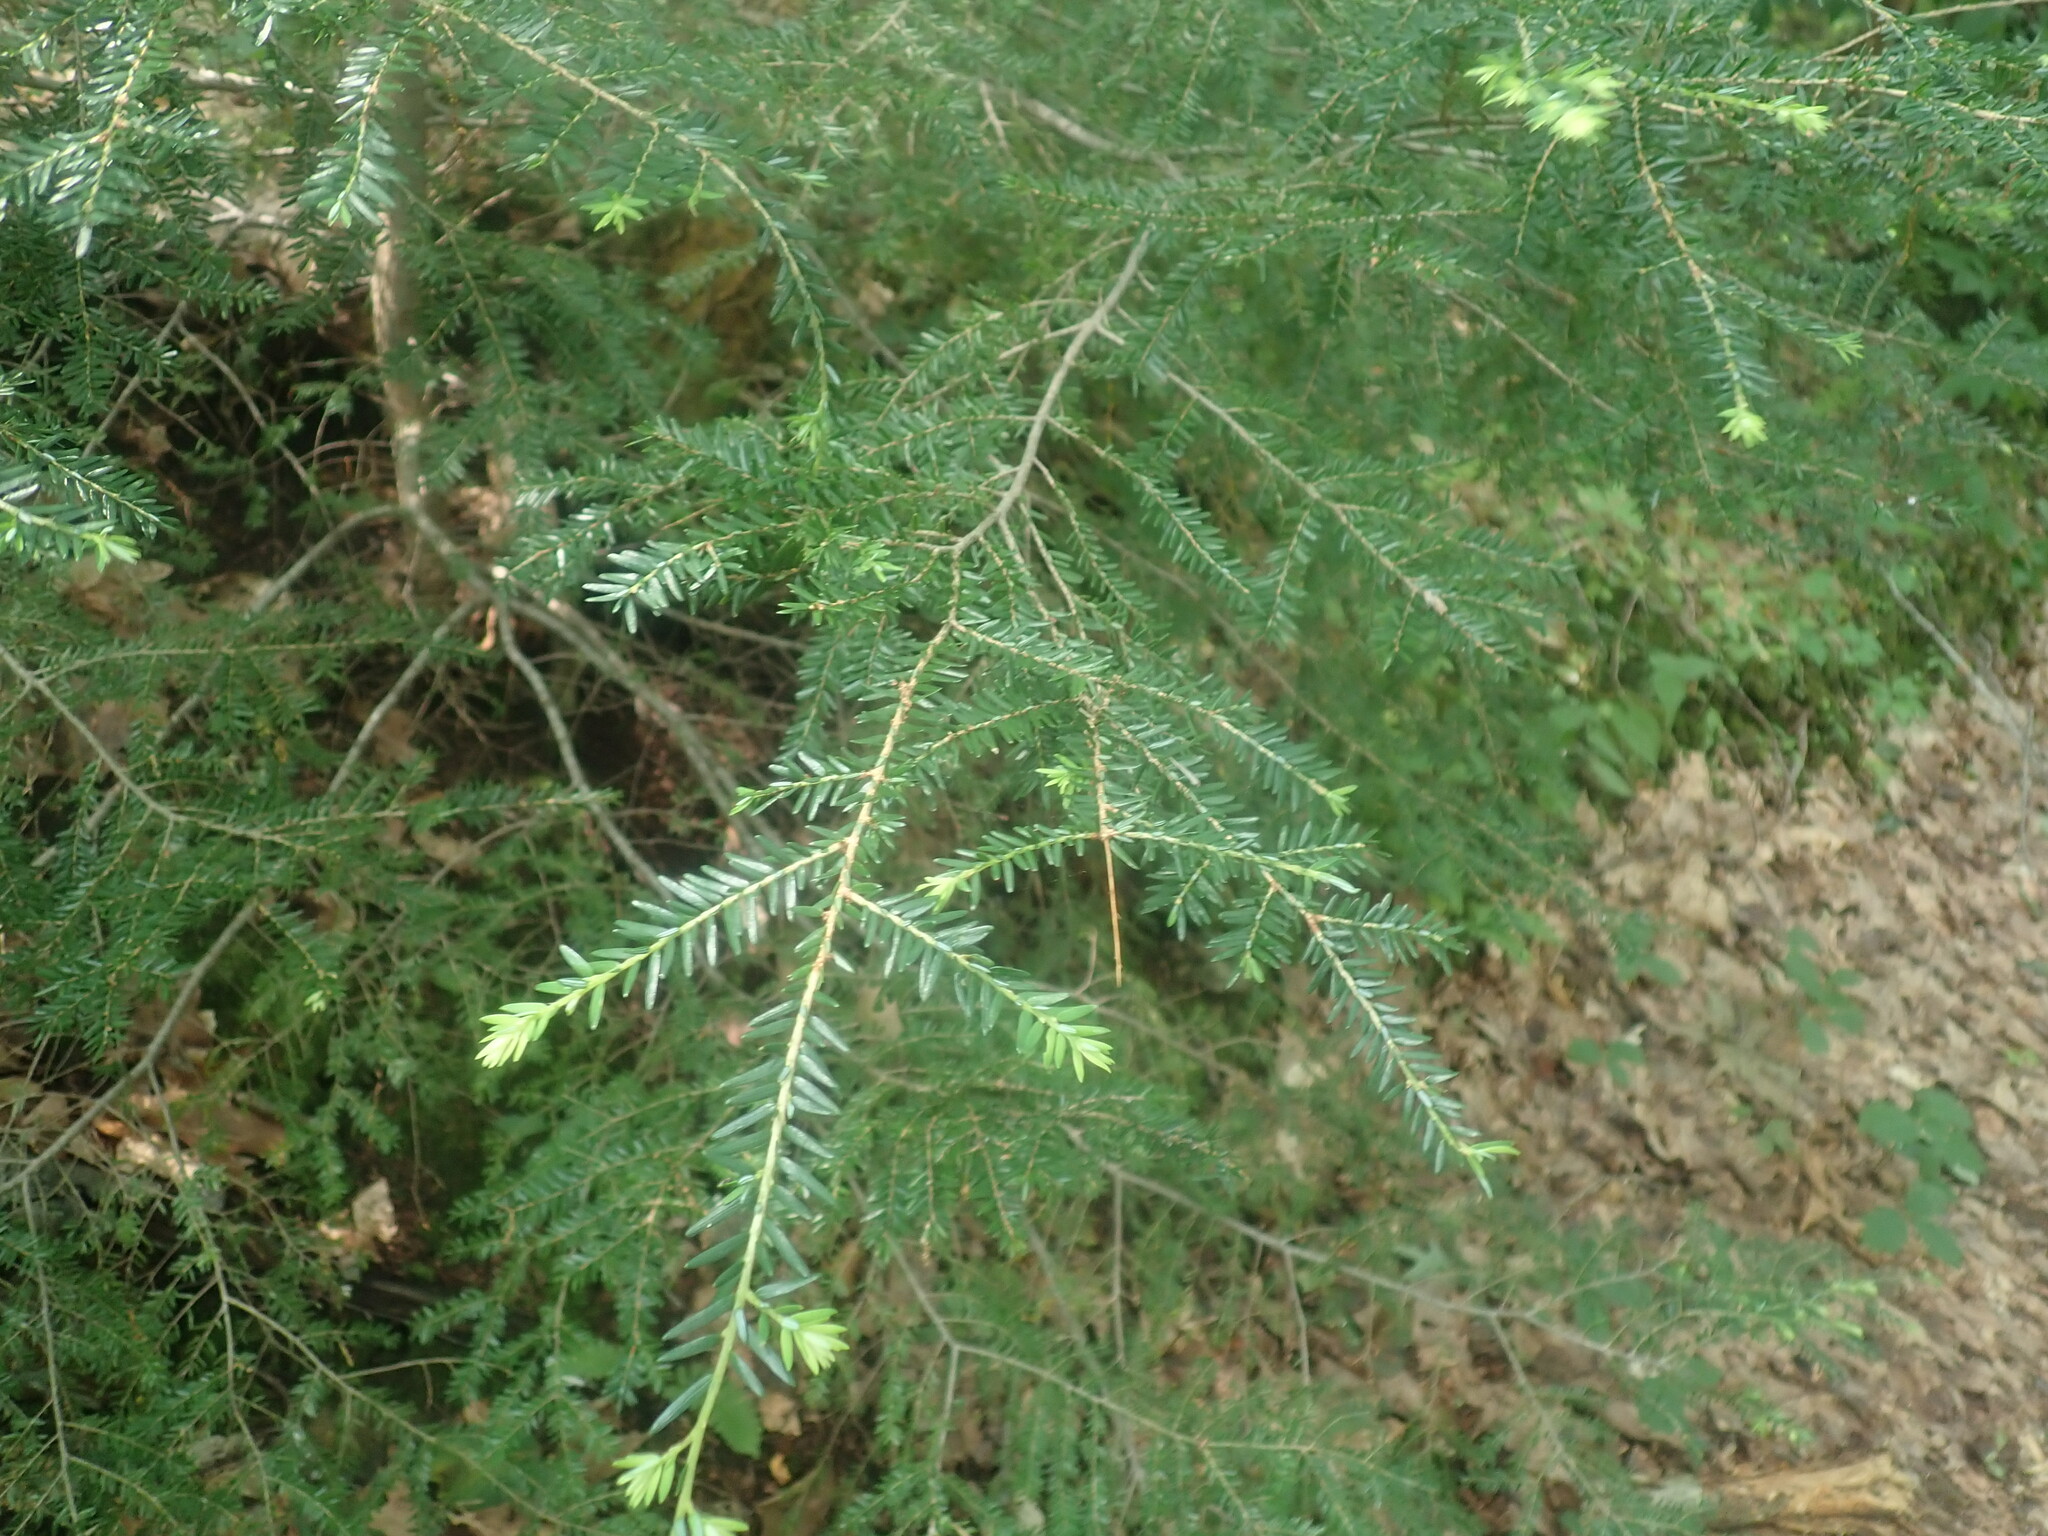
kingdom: Plantae
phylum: Tracheophyta
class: Pinopsida
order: Pinales
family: Pinaceae
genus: Tsuga
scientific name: Tsuga canadensis
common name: Eastern hemlock
